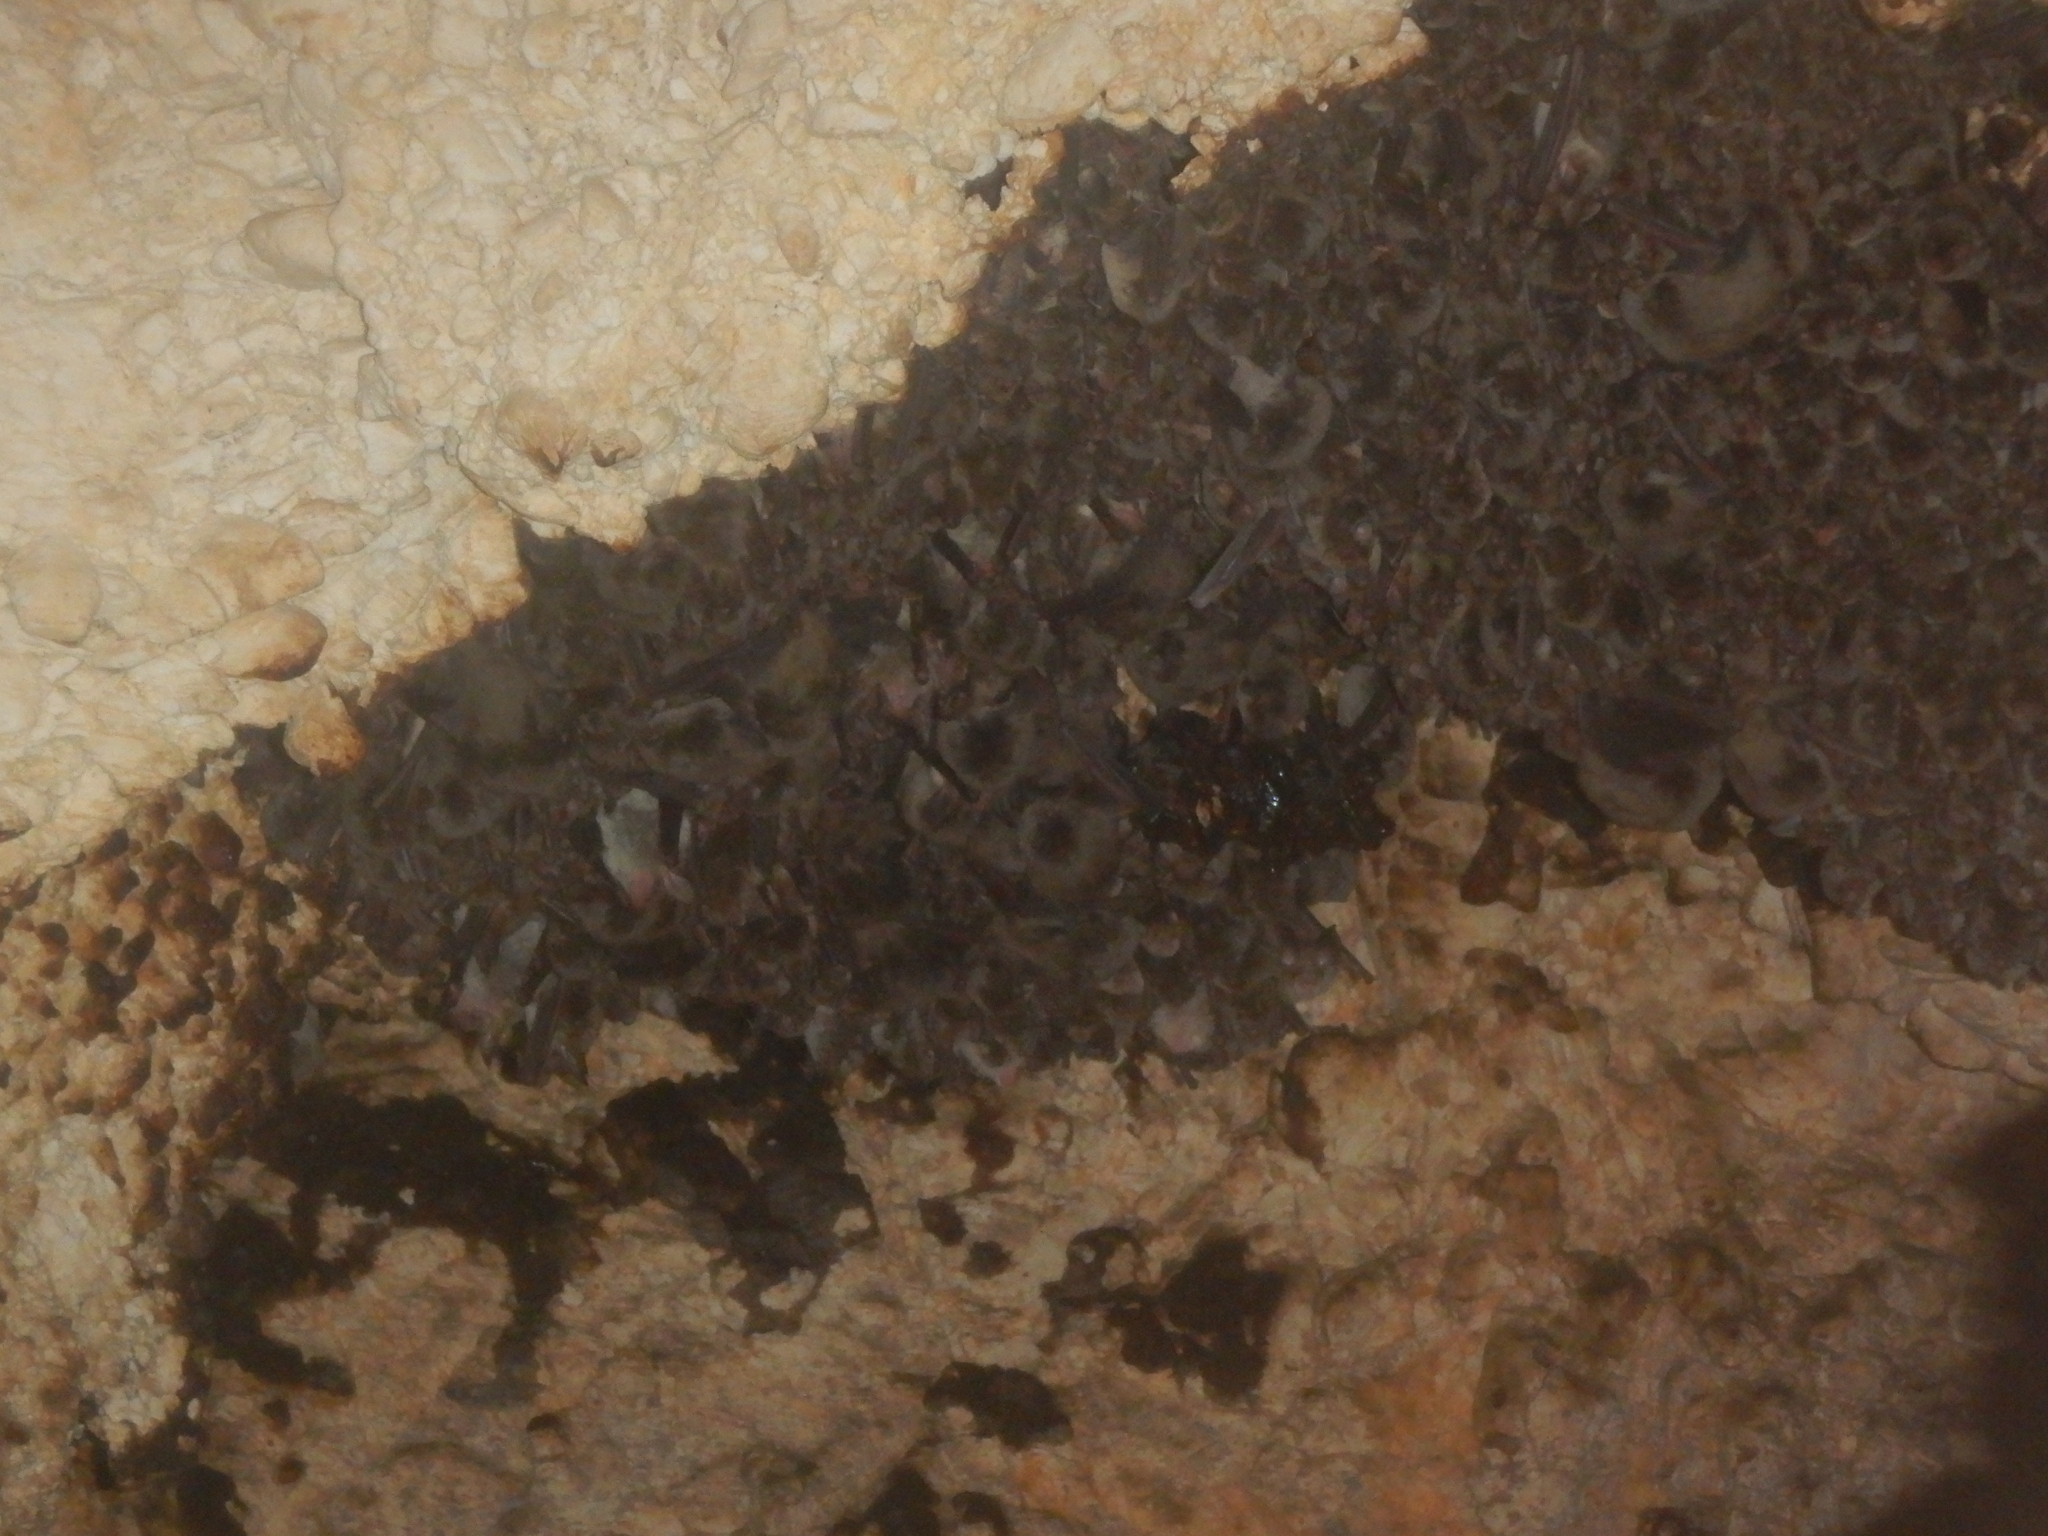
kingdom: Animalia
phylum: Chordata
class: Mammalia
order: Chiroptera
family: Miniopteridae
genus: Miniopterus
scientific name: Miniopterus schreibersii
